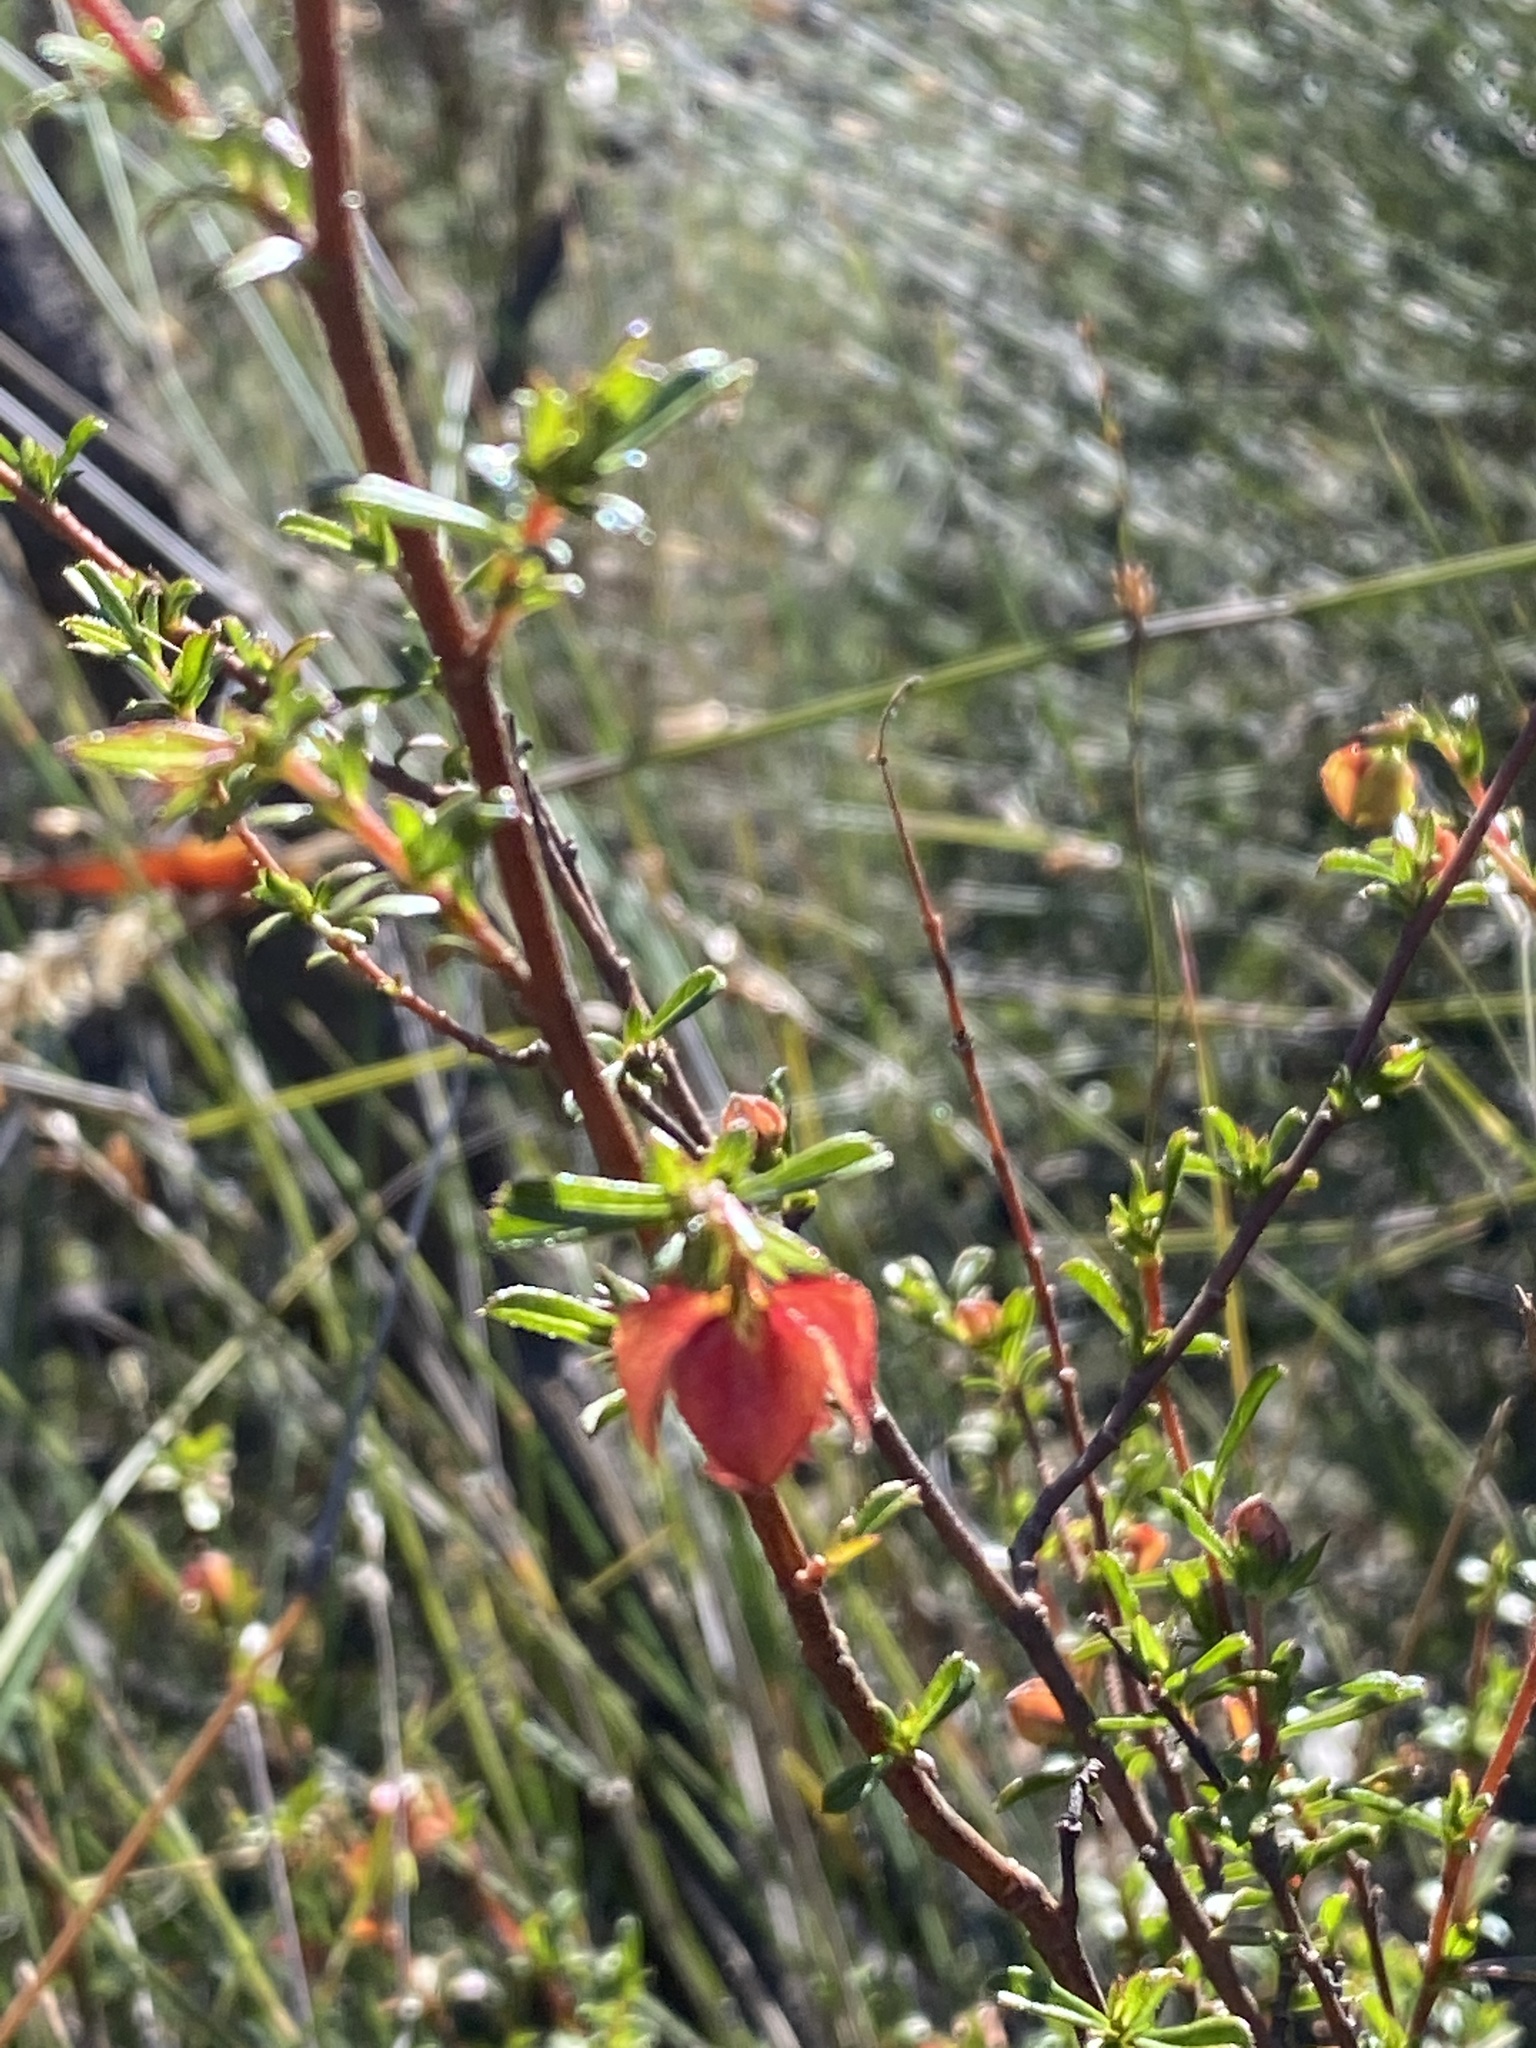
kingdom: Plantae
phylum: Tracheophyta
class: Magnoliopsida
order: Malvales
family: Malvaceae
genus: Hermannia
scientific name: Hermannia angularis
